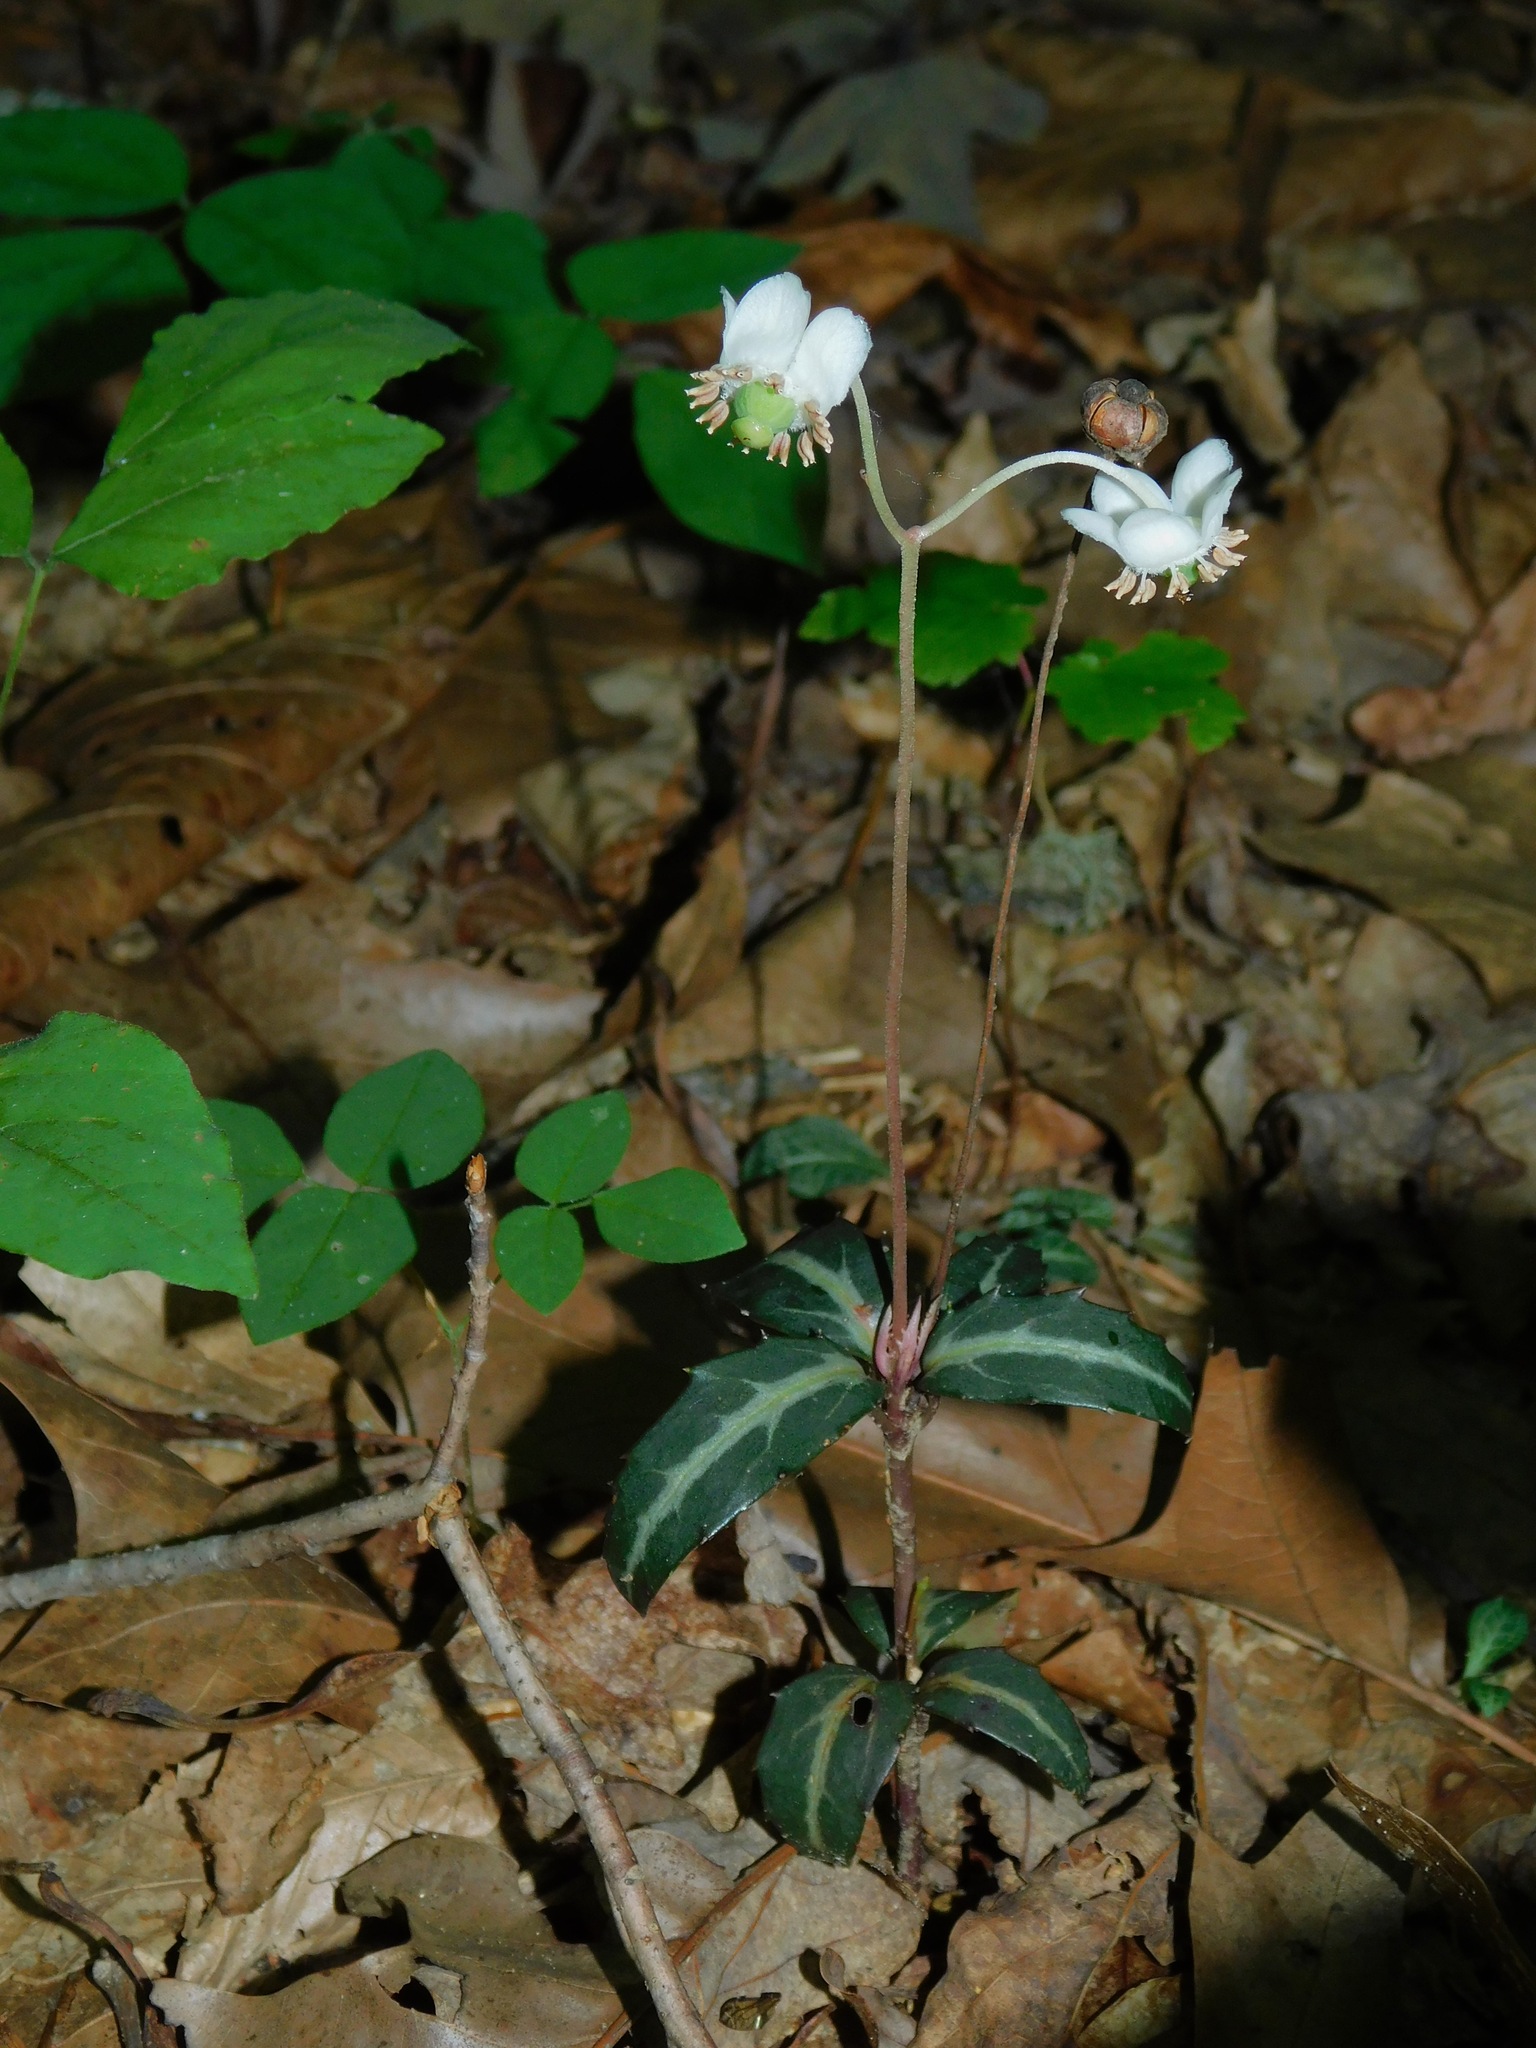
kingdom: Plantae
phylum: Tracheophyta
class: Magnoliopsida
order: Ericales
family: Ericaceae
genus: Chimaphila
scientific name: Chimaphila maculata
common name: Spotted pipsissewa
